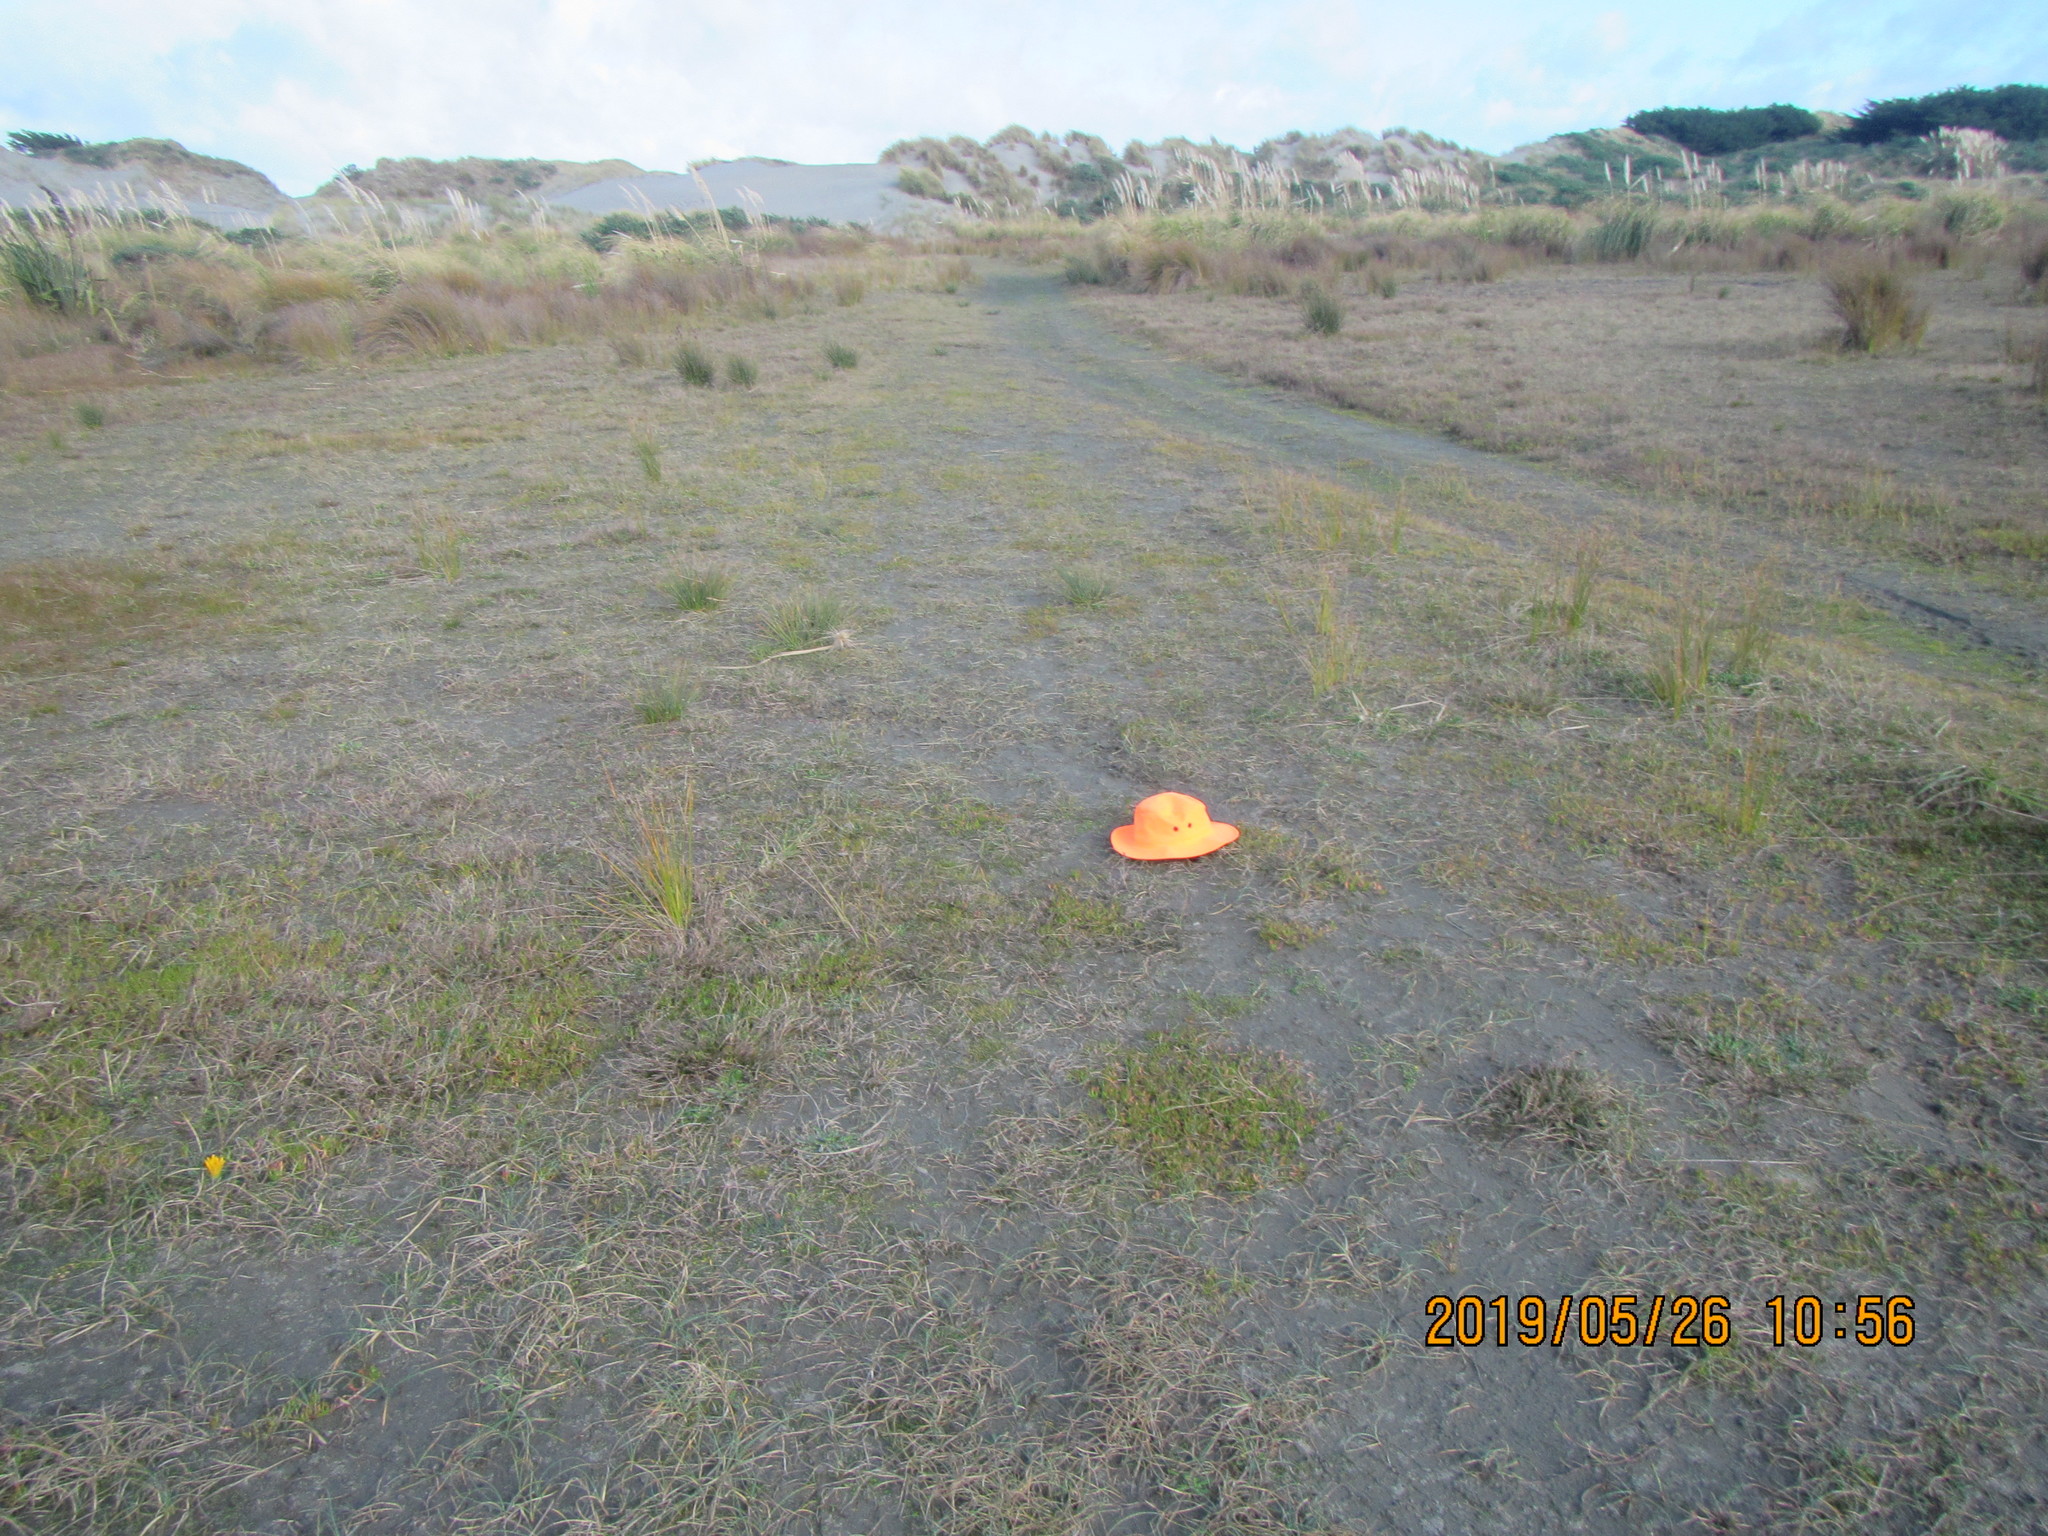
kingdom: Plantae
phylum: Tracheophyta
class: Magnoliopsida
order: Ranunculales
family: Ranunculaceae
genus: Ranunculus
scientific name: Ranunculus acaulis
